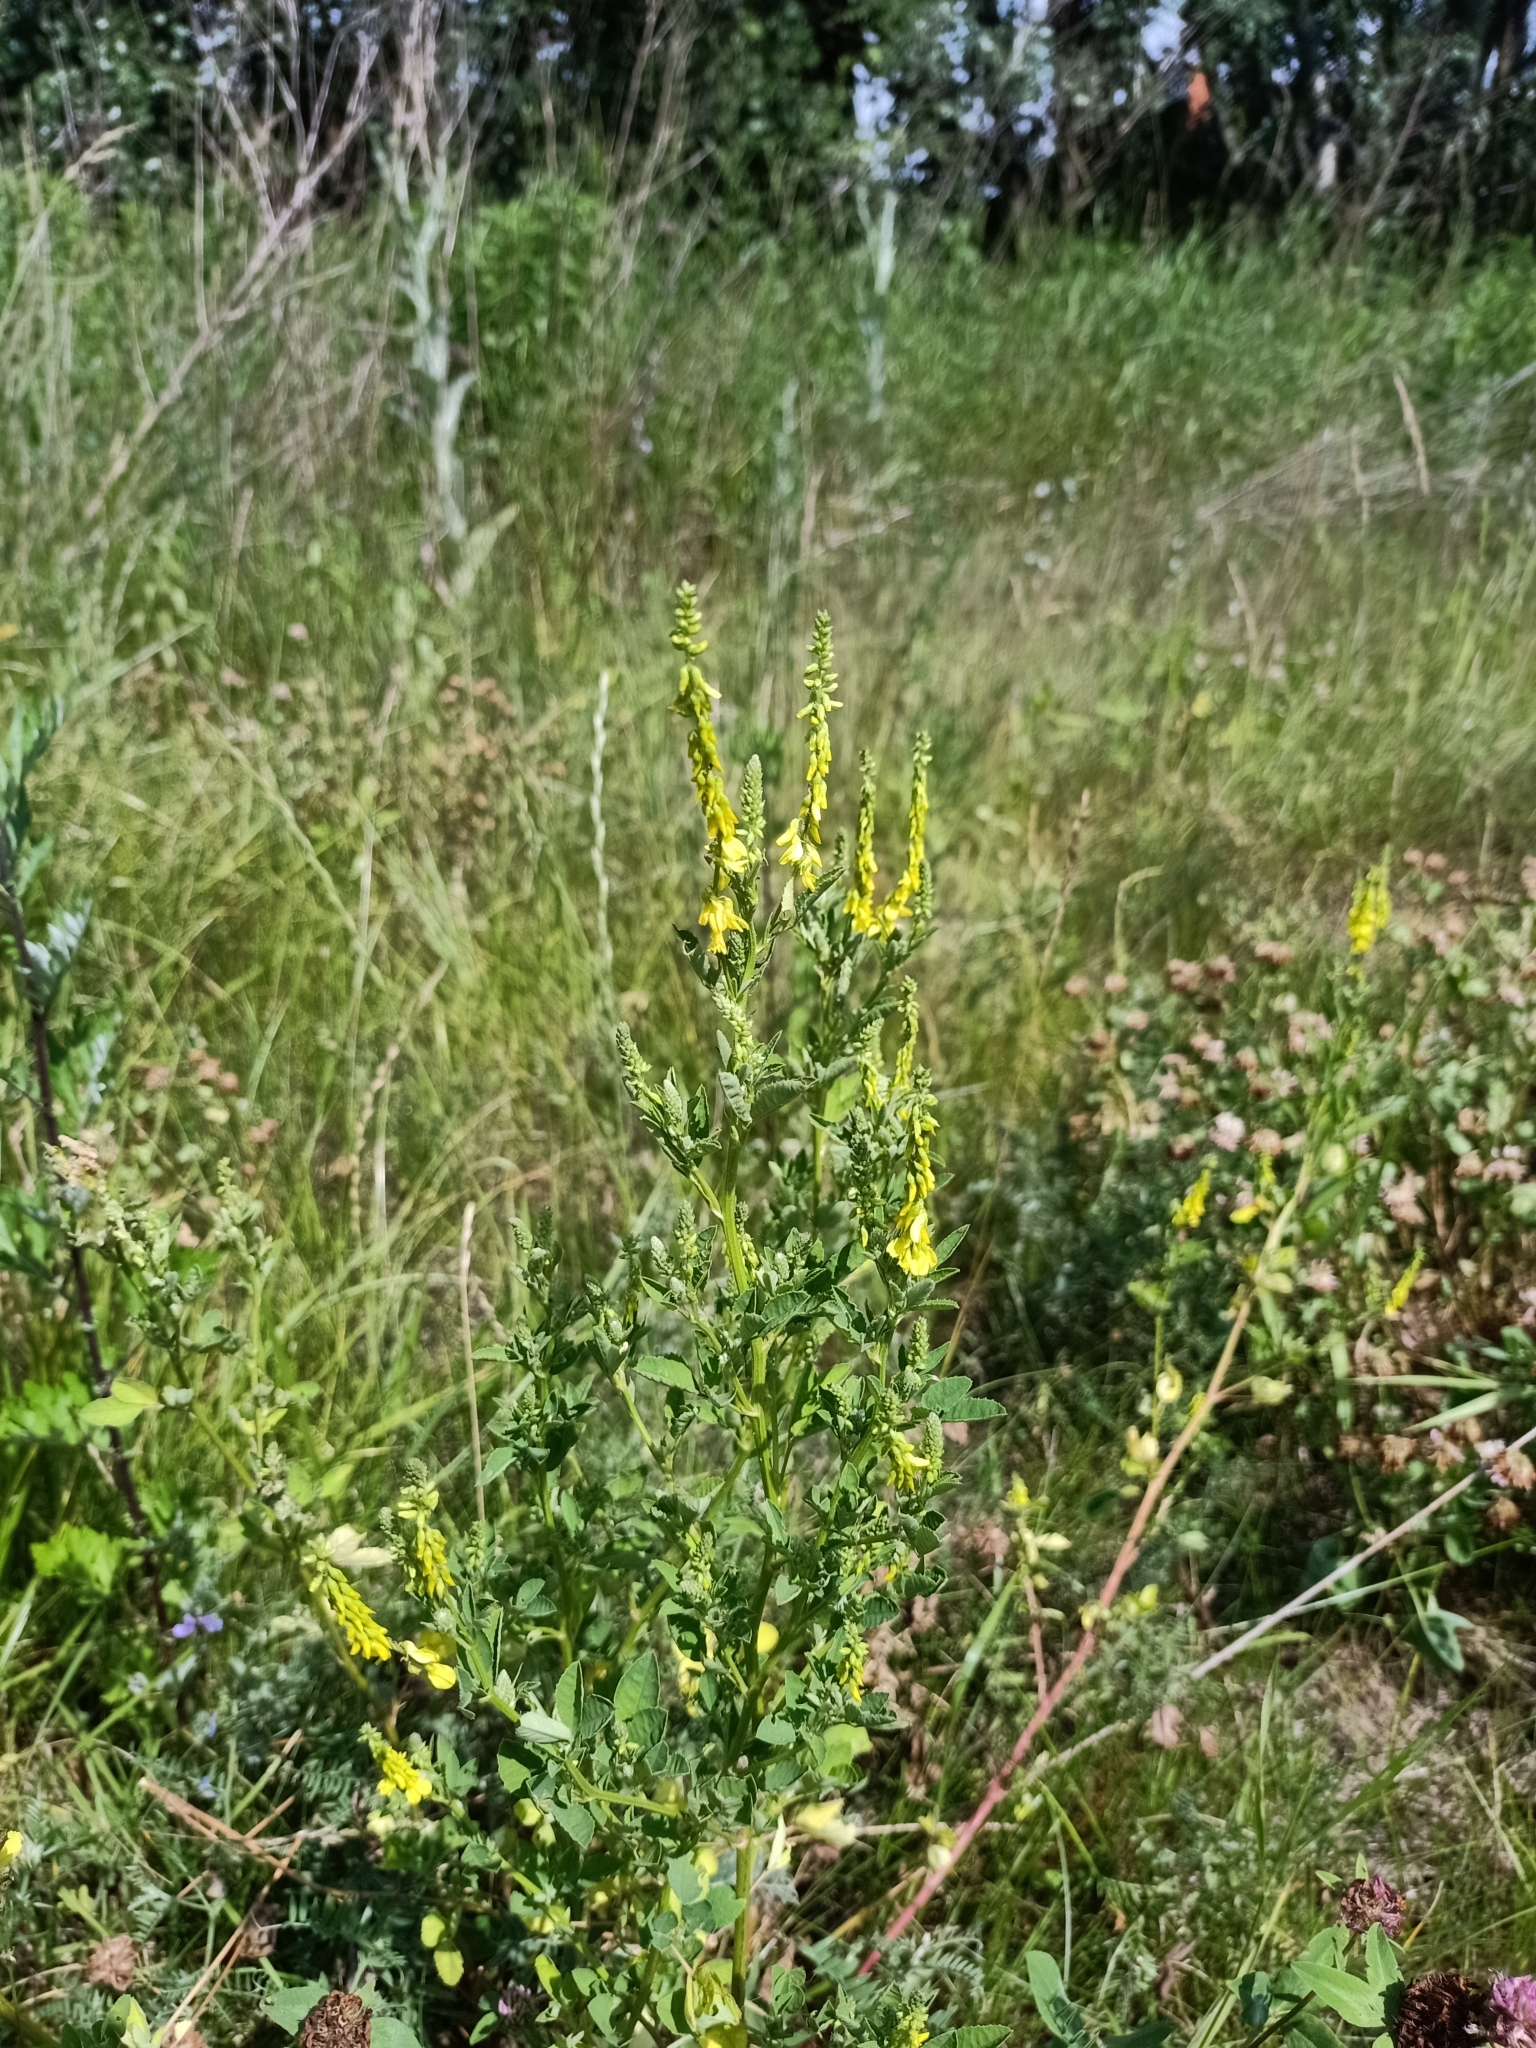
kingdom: Plantae
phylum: Tracheophyta
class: Magnoliopsida
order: Fabales
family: Fabaceae
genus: Melilotus
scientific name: Melilotus officinalis
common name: Sweetclover
